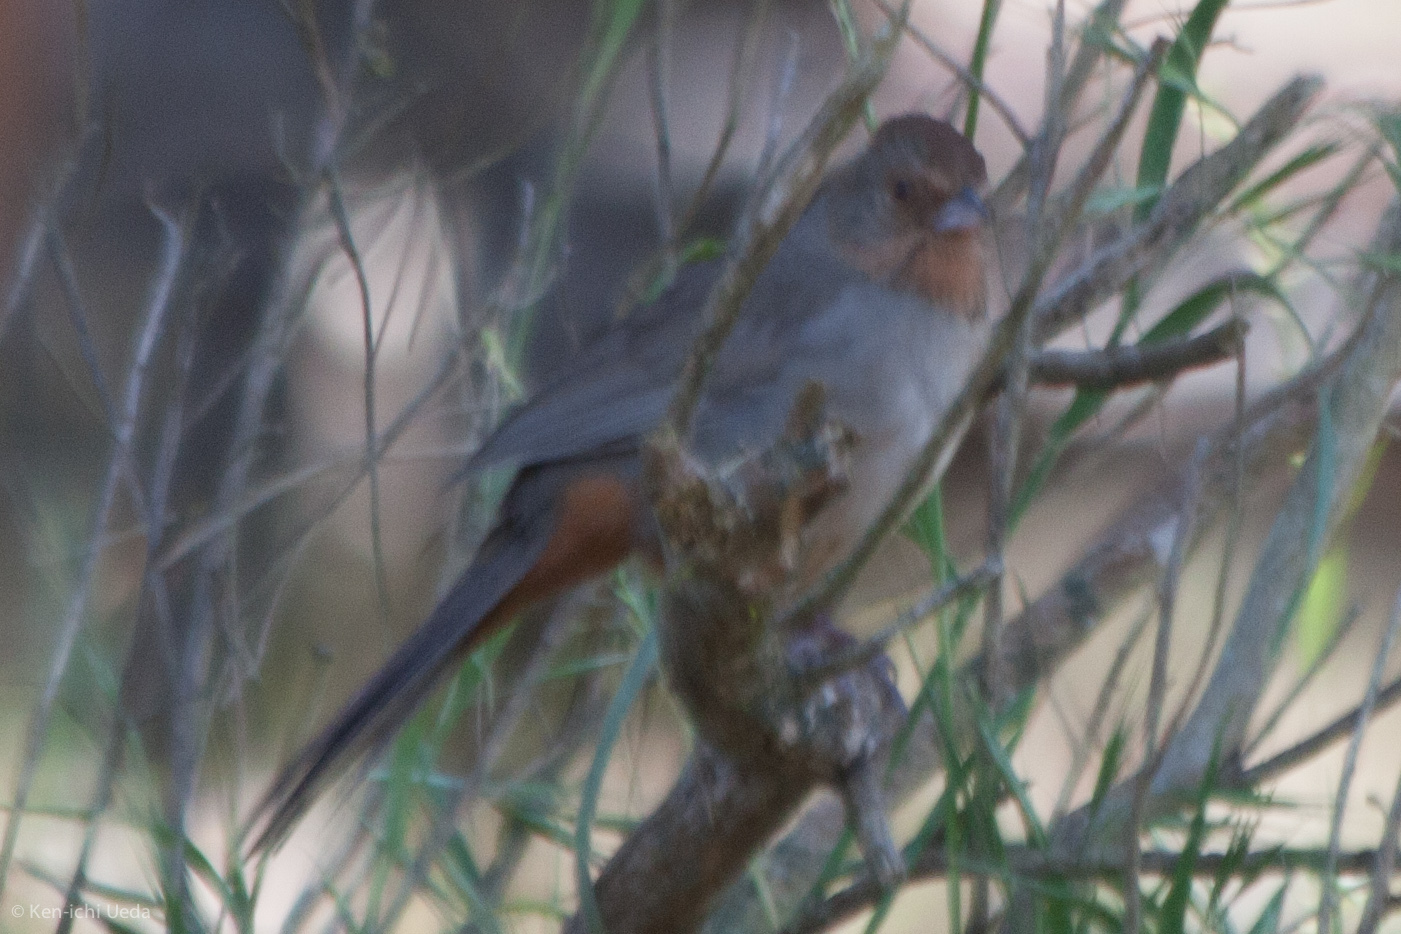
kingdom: Animalia
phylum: Chordata
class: Aves
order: Passeriformes
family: Passerellidae
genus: Melozone
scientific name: Melozone crissalis
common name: California towhee
